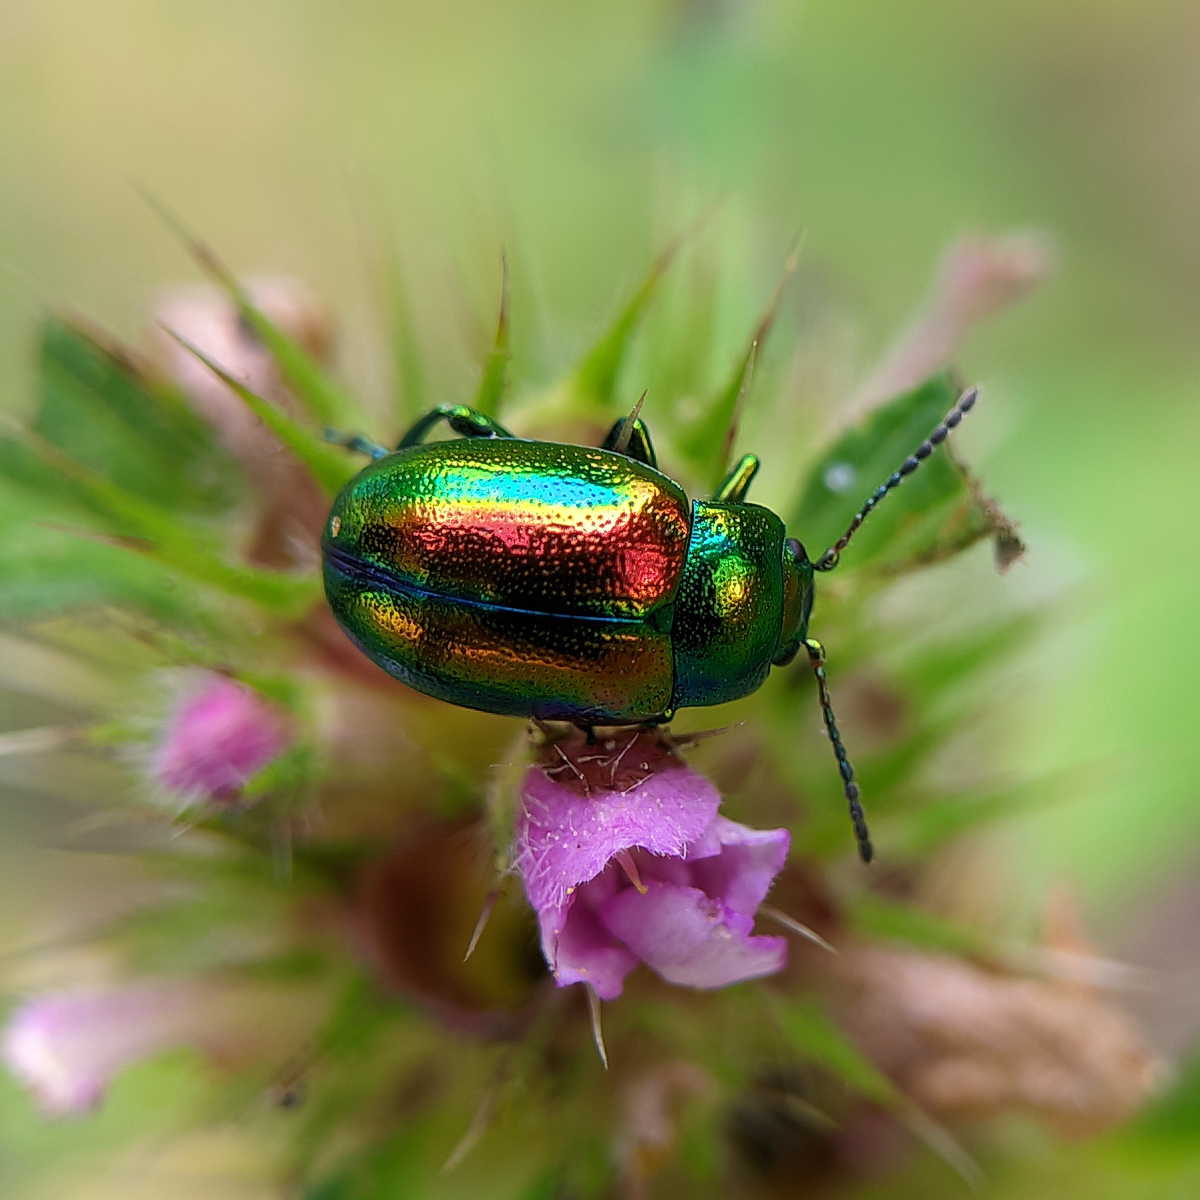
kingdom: Animalia
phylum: Arthropoda
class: Insecta
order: Coleoptera
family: Chrysomelidae
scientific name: Chrysomelidae
